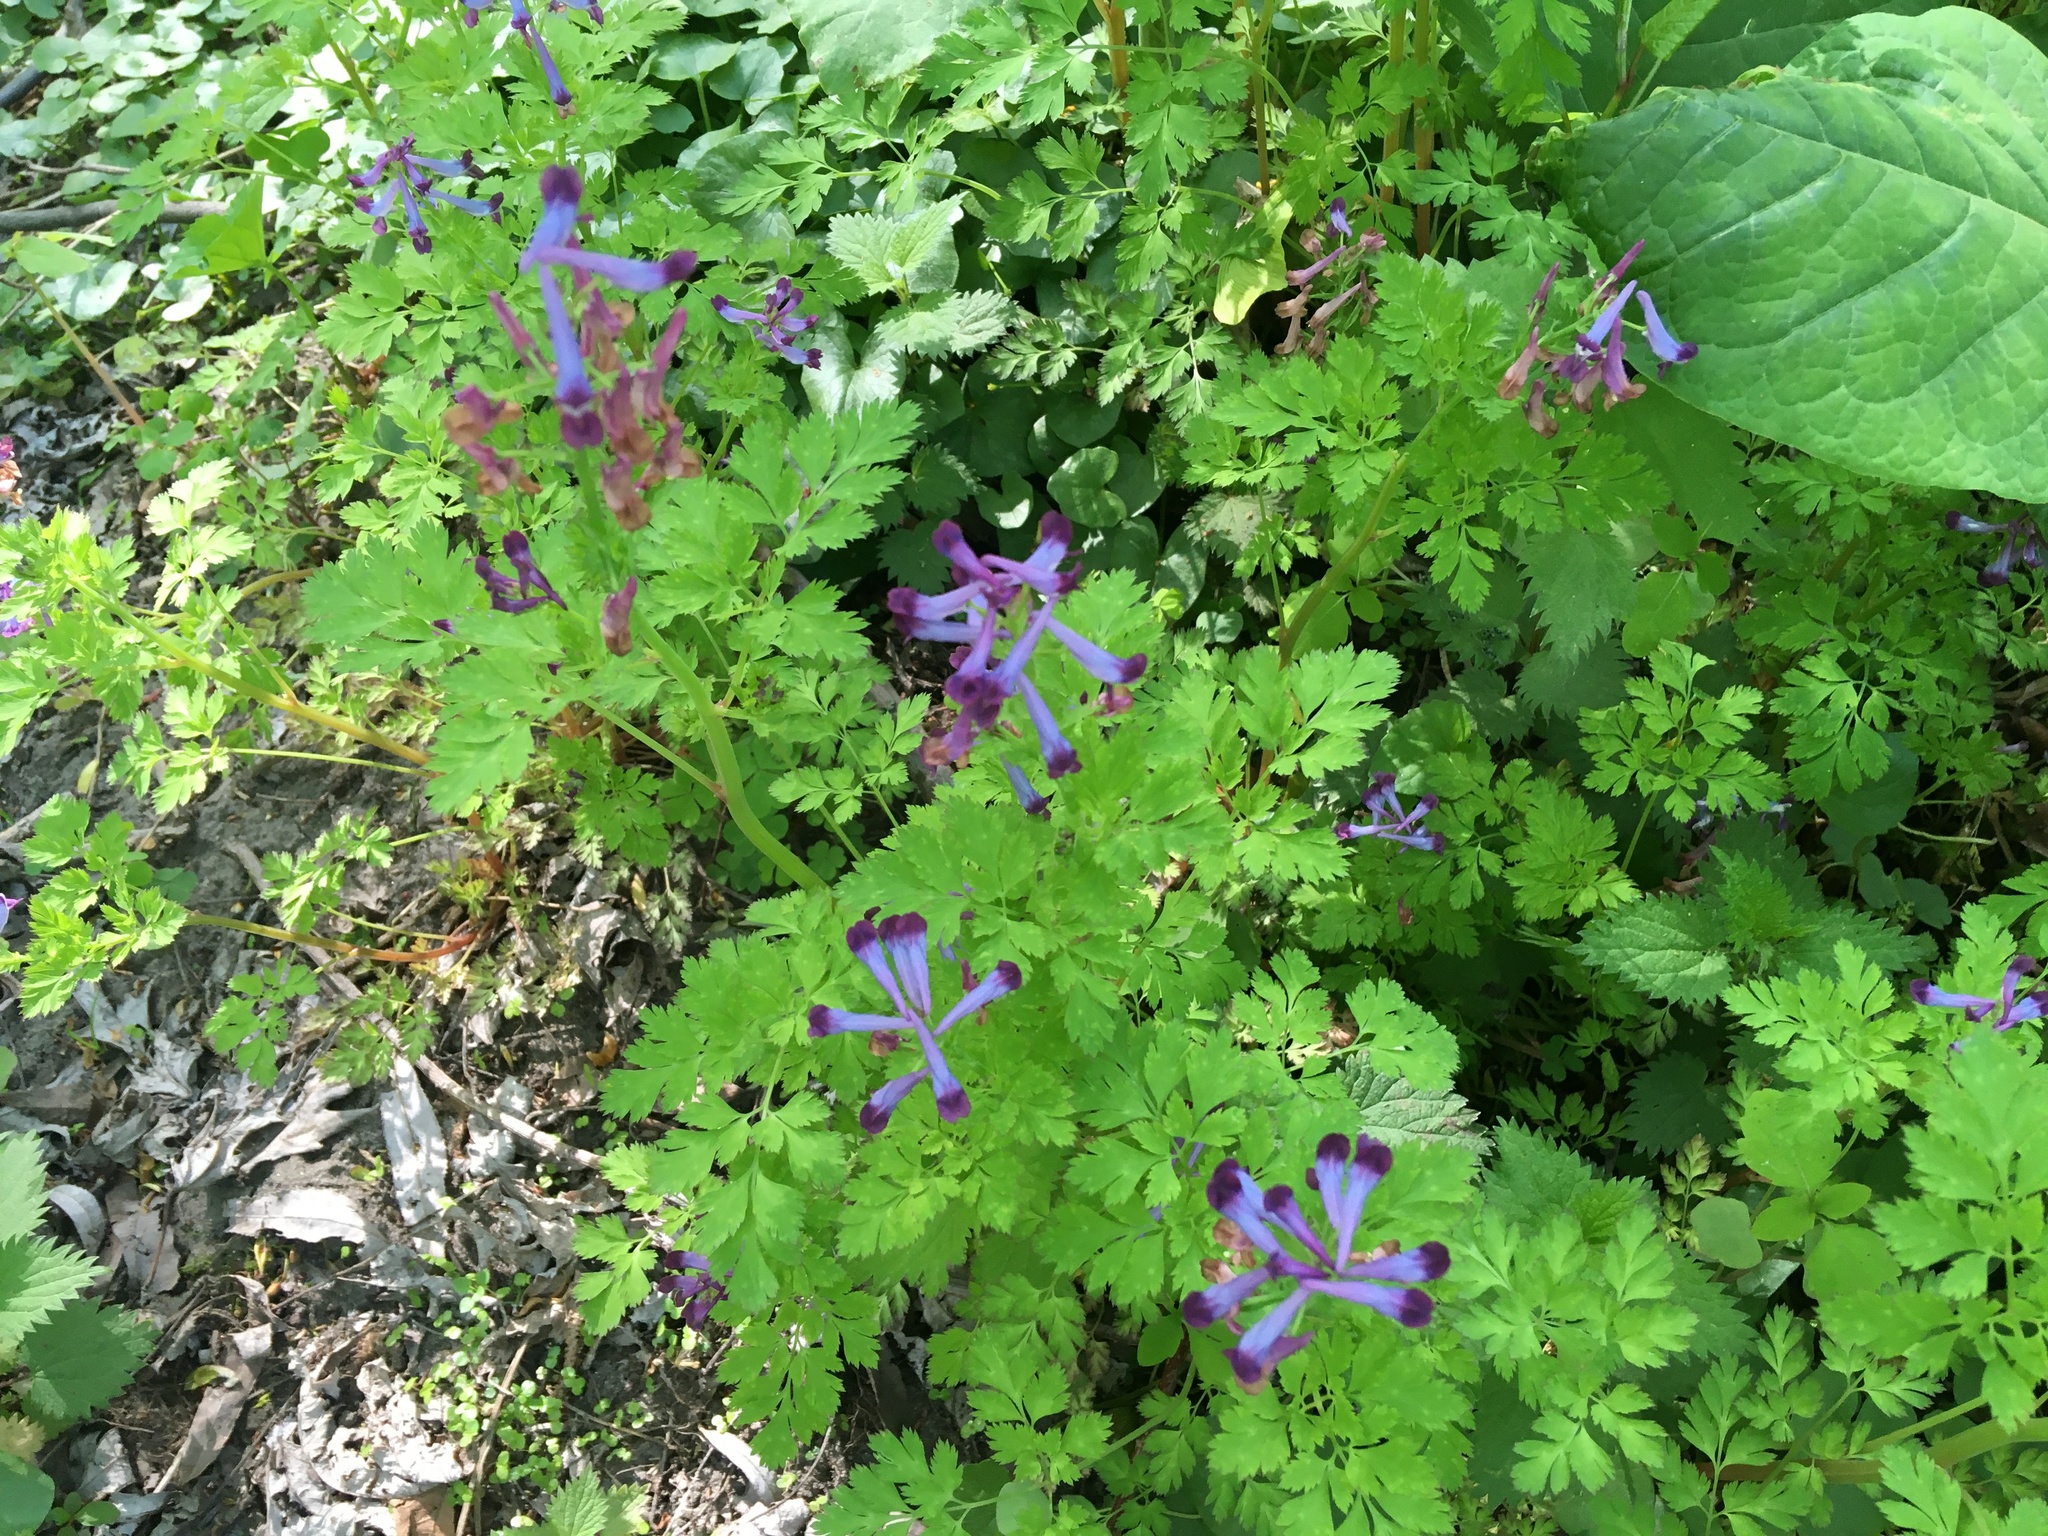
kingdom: Plantae
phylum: Tracheophyta
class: Magnoliopsida
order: Ranunculales
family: Papaveraceae
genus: Corydalis
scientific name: Corydalis incisa
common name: Incised fumewort
